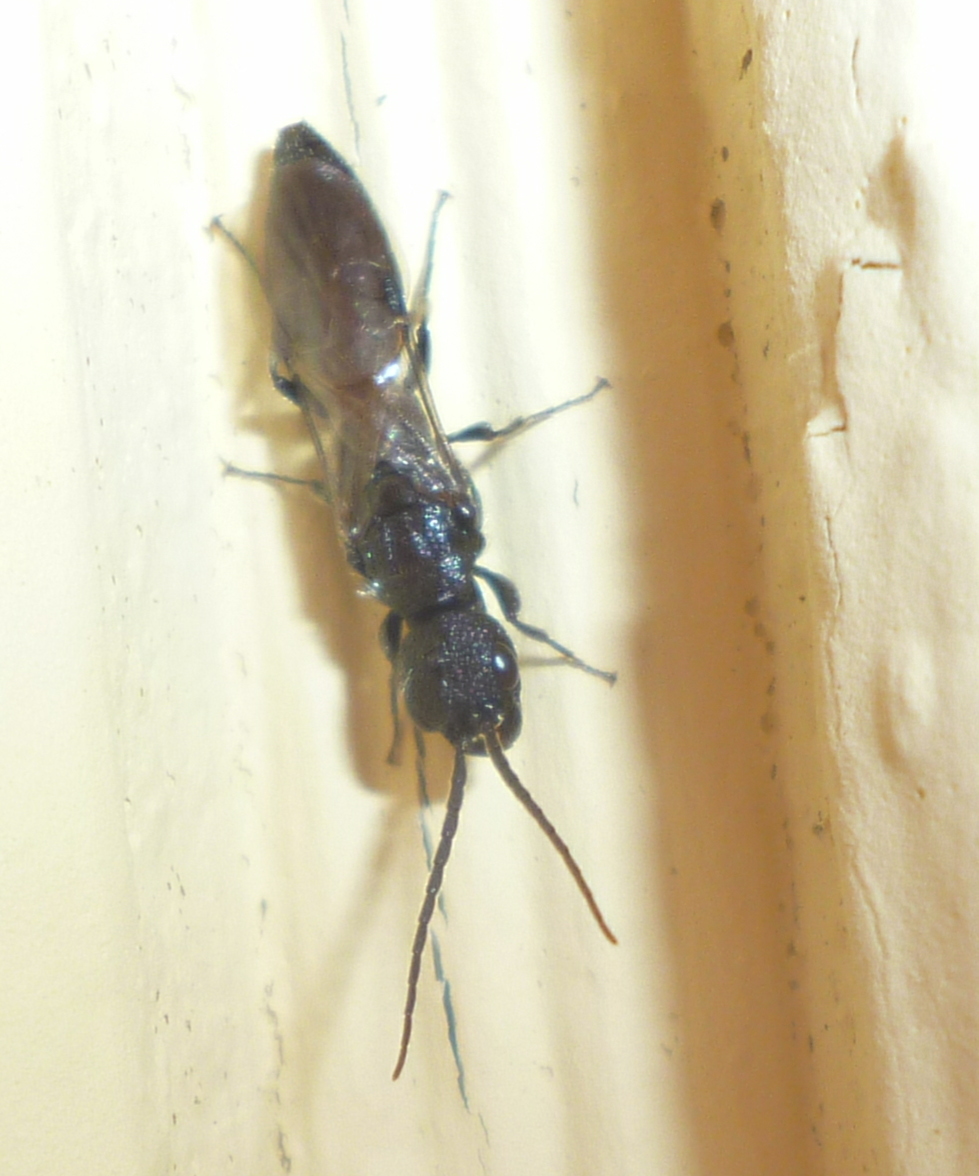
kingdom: Animalia
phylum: Arthropoda
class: Insecta
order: Hymenoptera
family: Bethylidae
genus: Pristepyris
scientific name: Pristepyris
